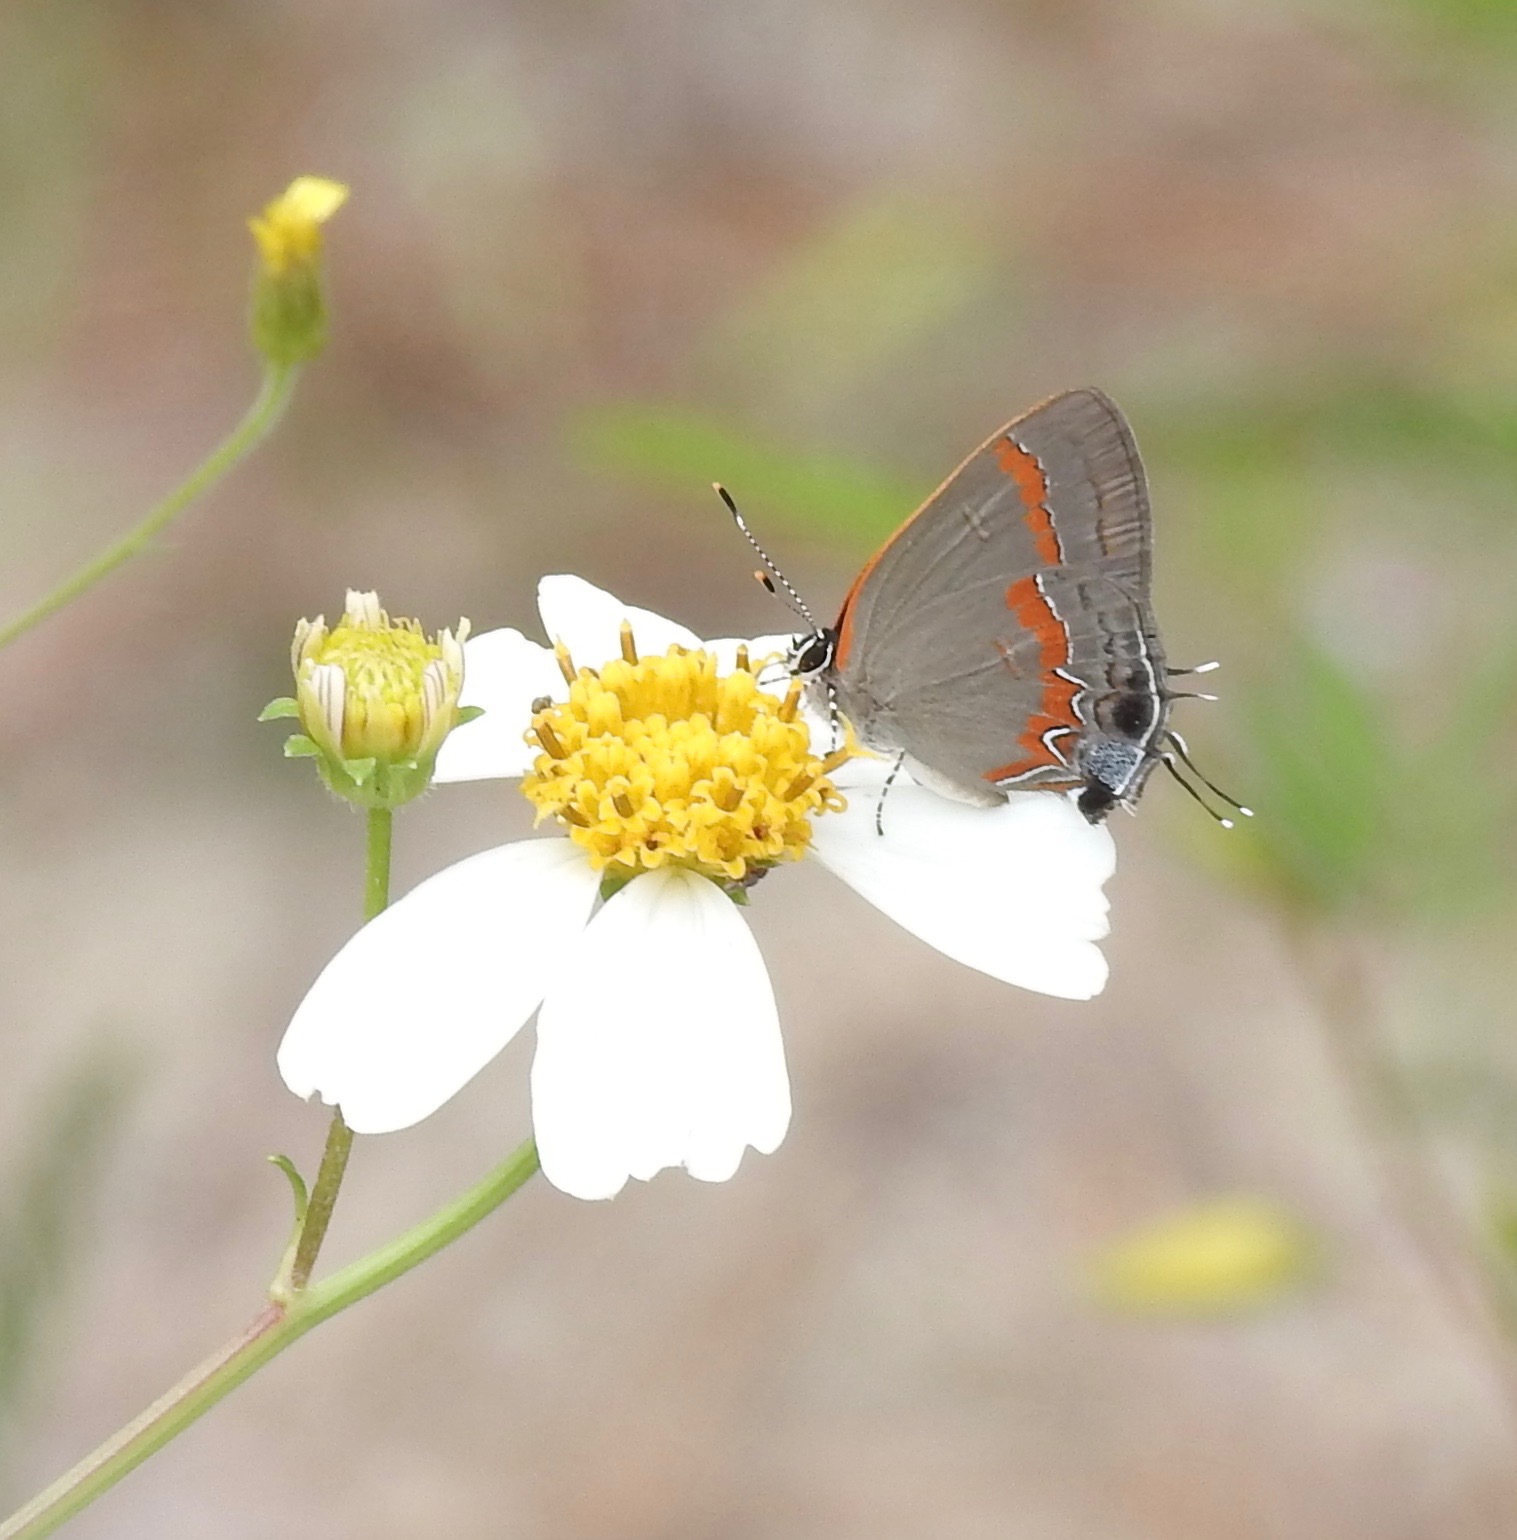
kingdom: Animalia
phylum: Arthropoda
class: Insecta
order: Lepidoptera
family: Lycaenidae
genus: Calycopis
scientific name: Calycopis cecrops
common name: Red-banded hairstreak
